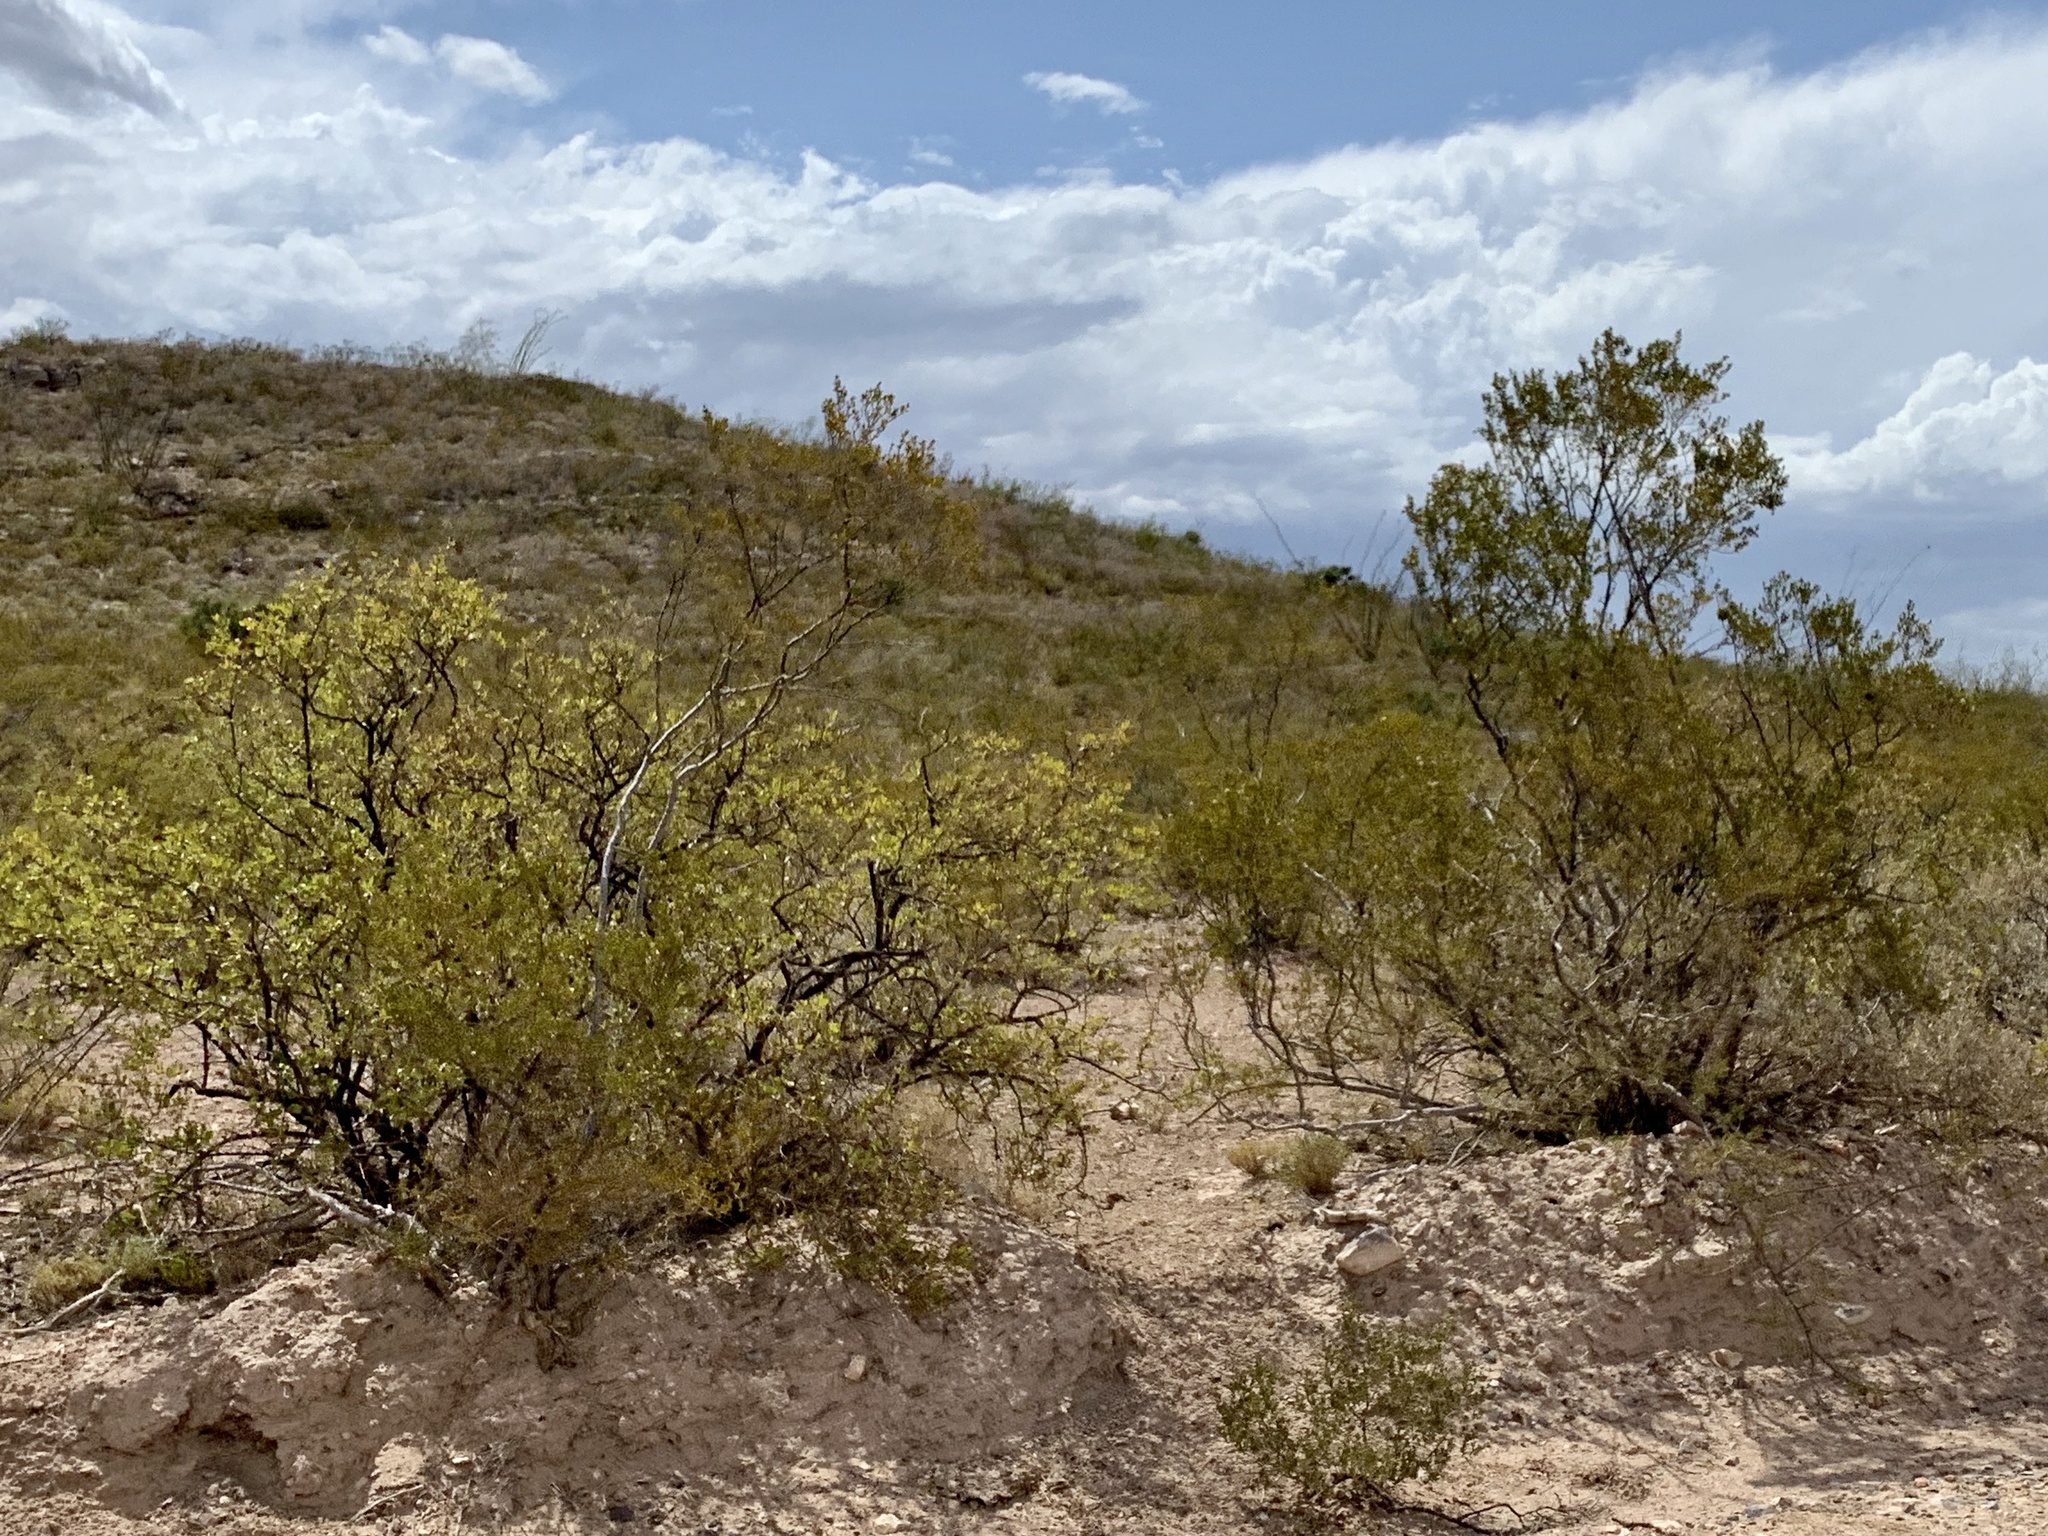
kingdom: Plantae
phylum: Tracheophyta
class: Magnoliopsida
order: Zygophyllales
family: Zygophyllaceae
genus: Larrea
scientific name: Larrea tridentata
